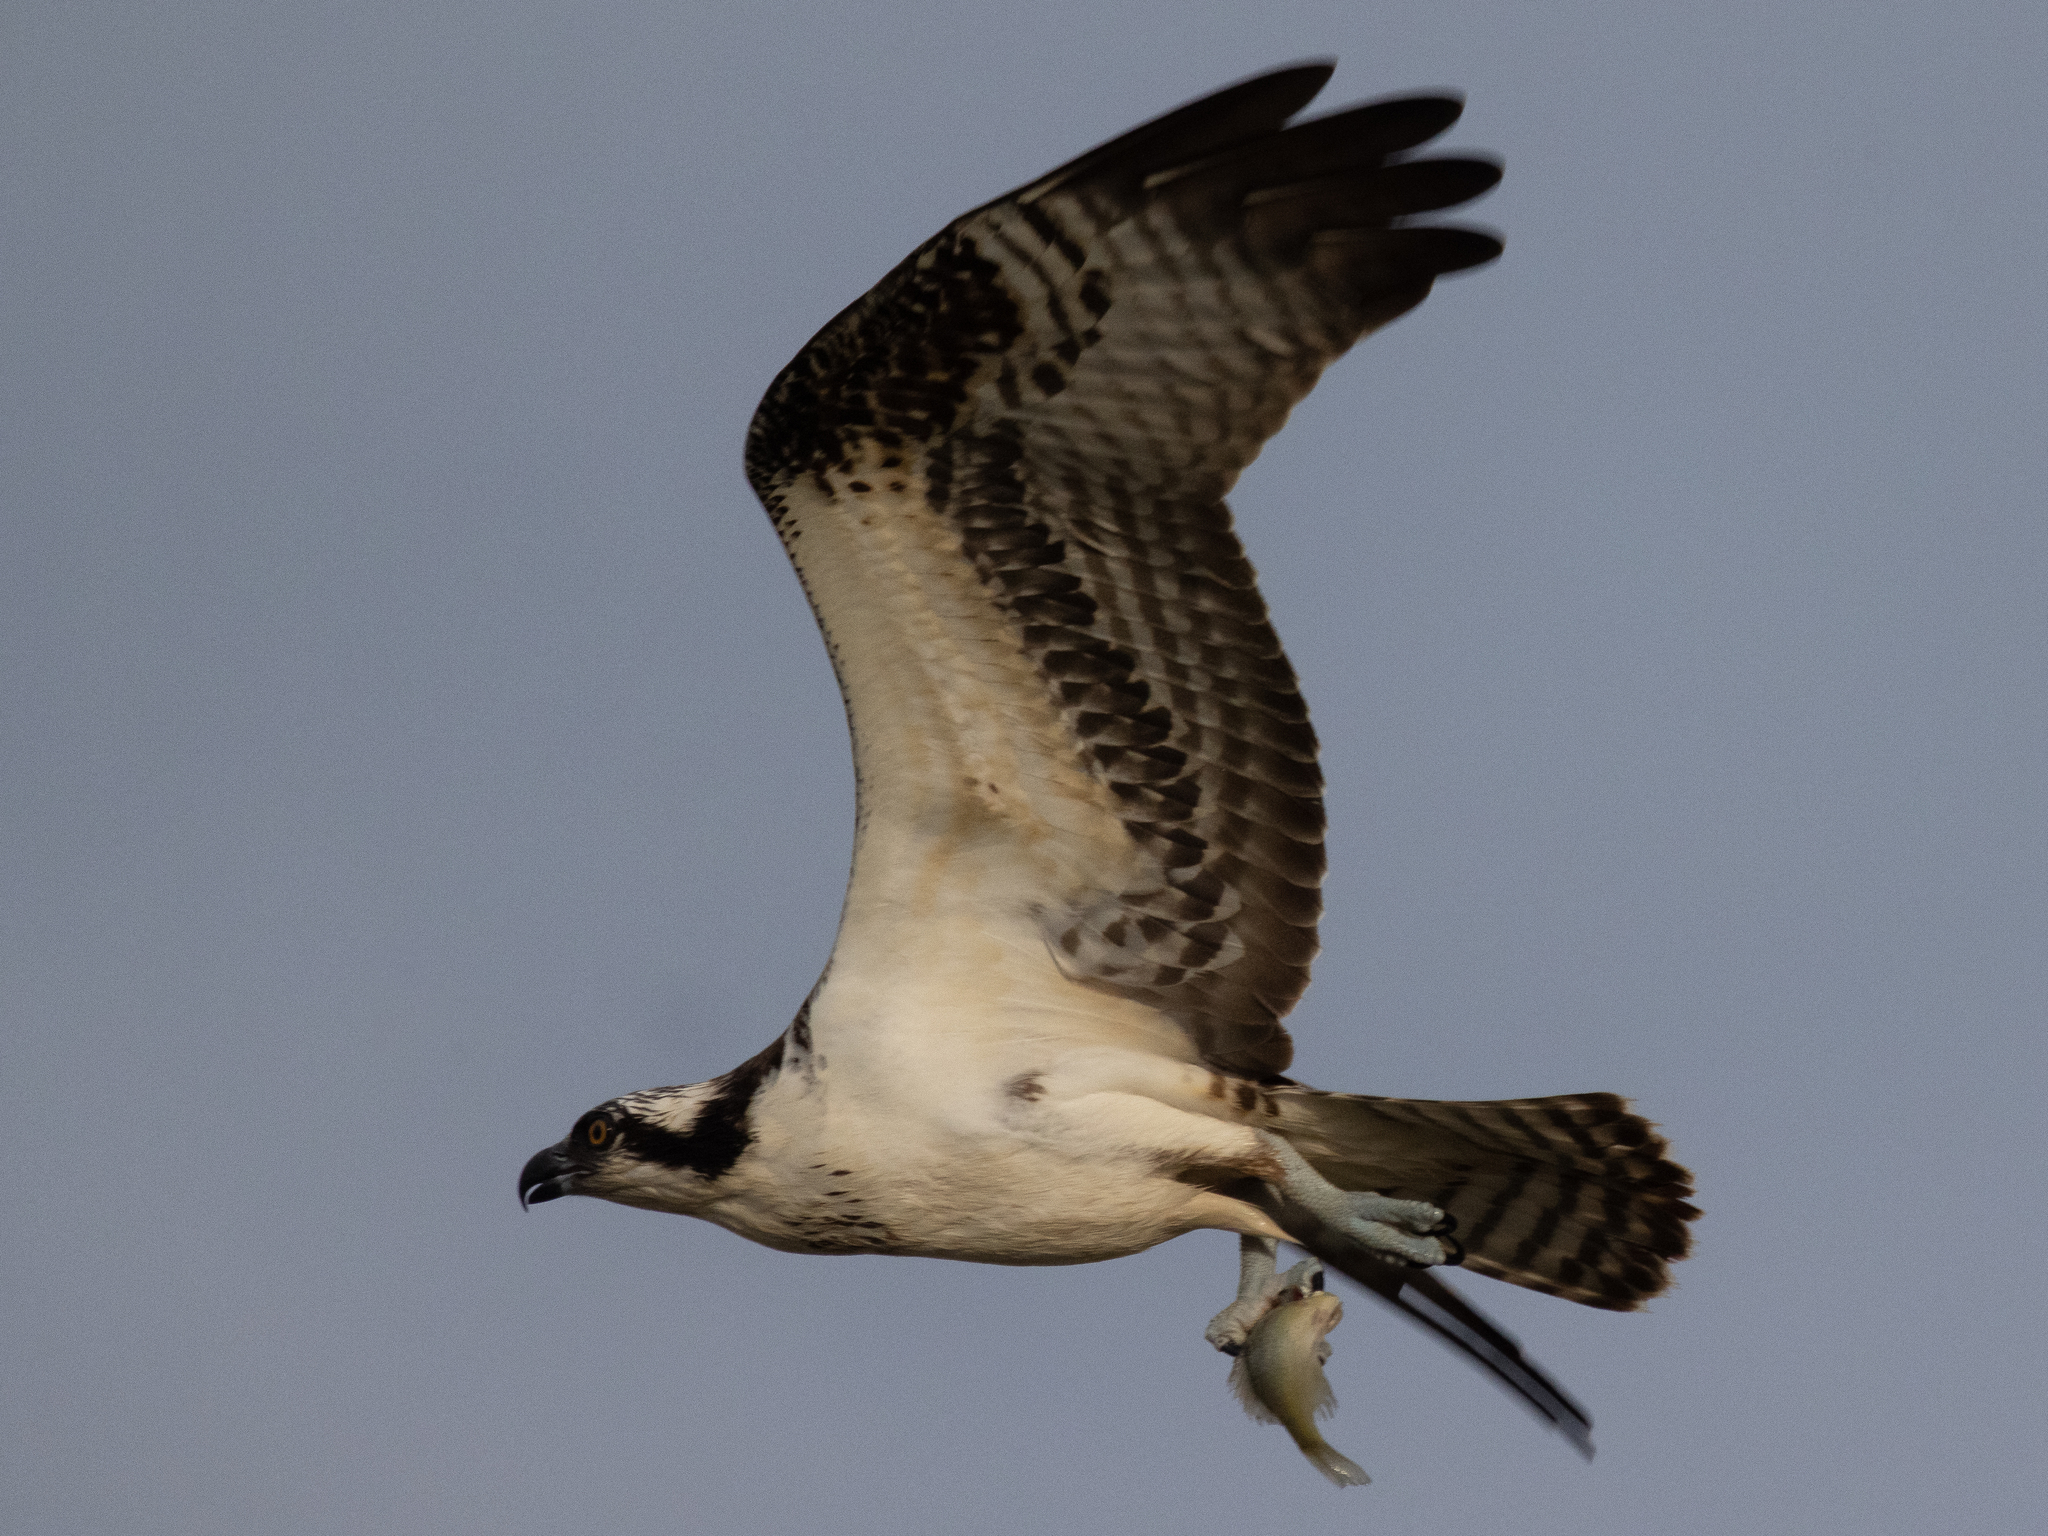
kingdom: Animalia
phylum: Chordata
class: Aves
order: Accipitriformes
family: Pandionidae
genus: Pandion
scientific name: Pandion haliaetus
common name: Osprey
